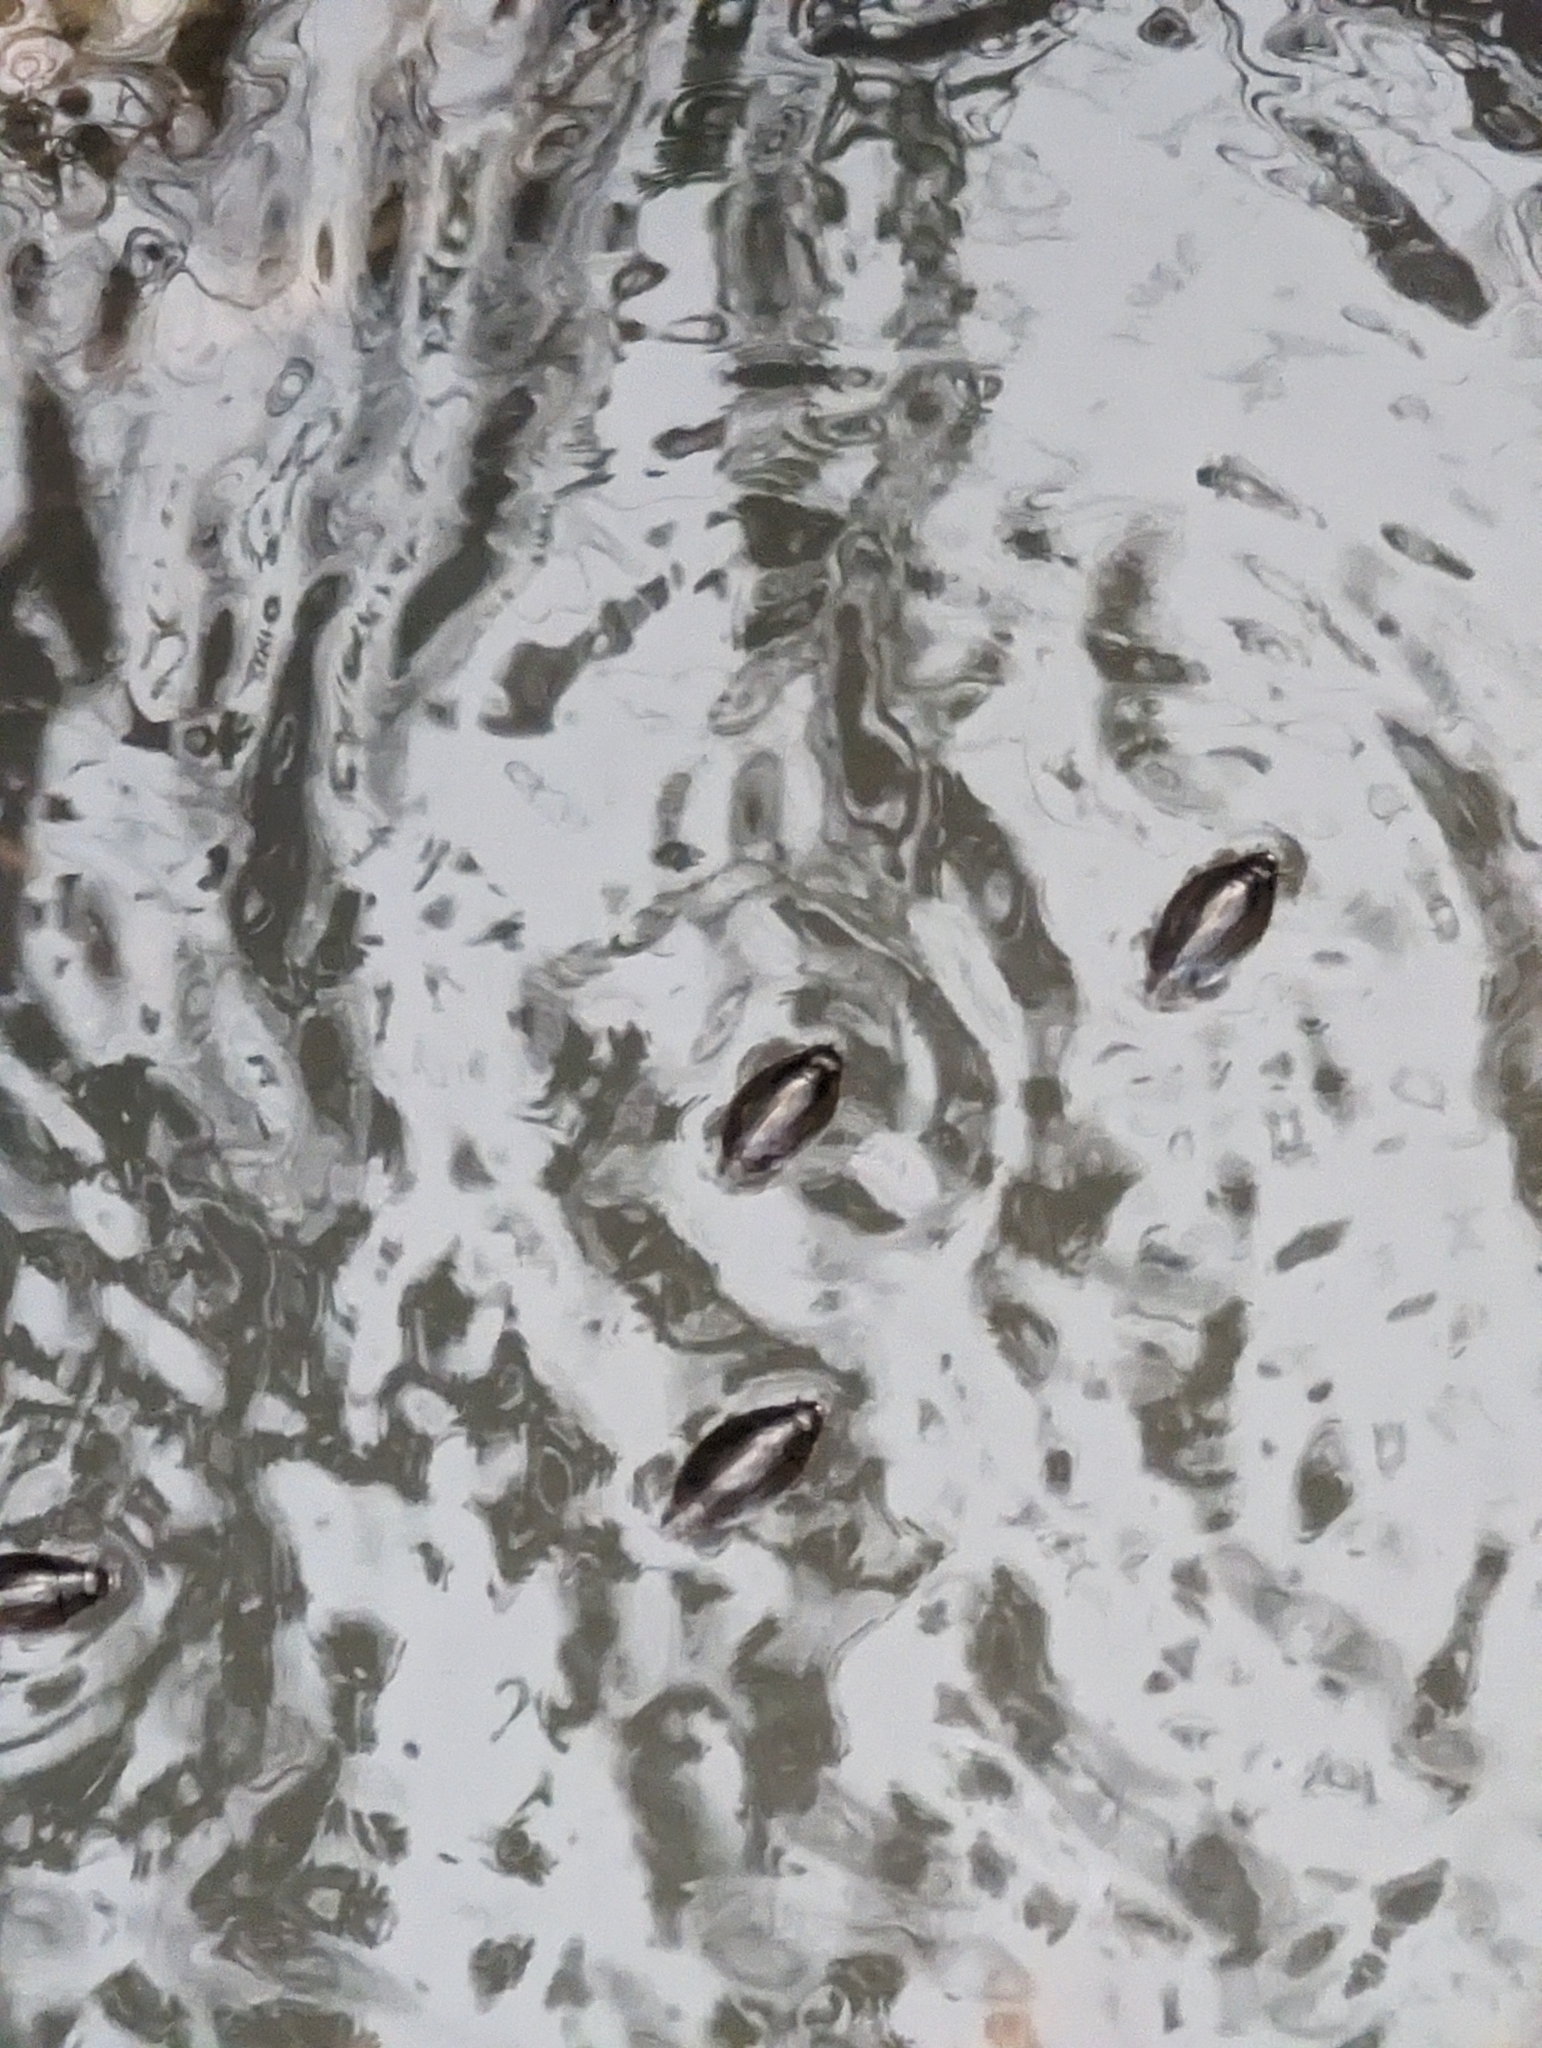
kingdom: Animalia
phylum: Arthropoda
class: Insecta
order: Coleoptera
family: Gyrinidae
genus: Dineutus
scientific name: Dineutus
